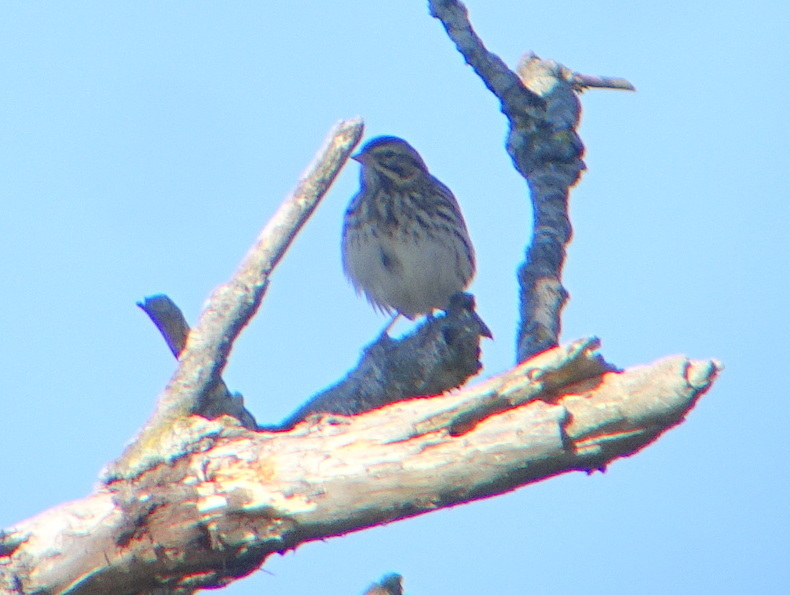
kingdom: Animalia
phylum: Chordata
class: Aves
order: Passeriformes
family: Passerellidae
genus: Passerculus
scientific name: Passerculus sandwichensis
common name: Savannah sparrow
